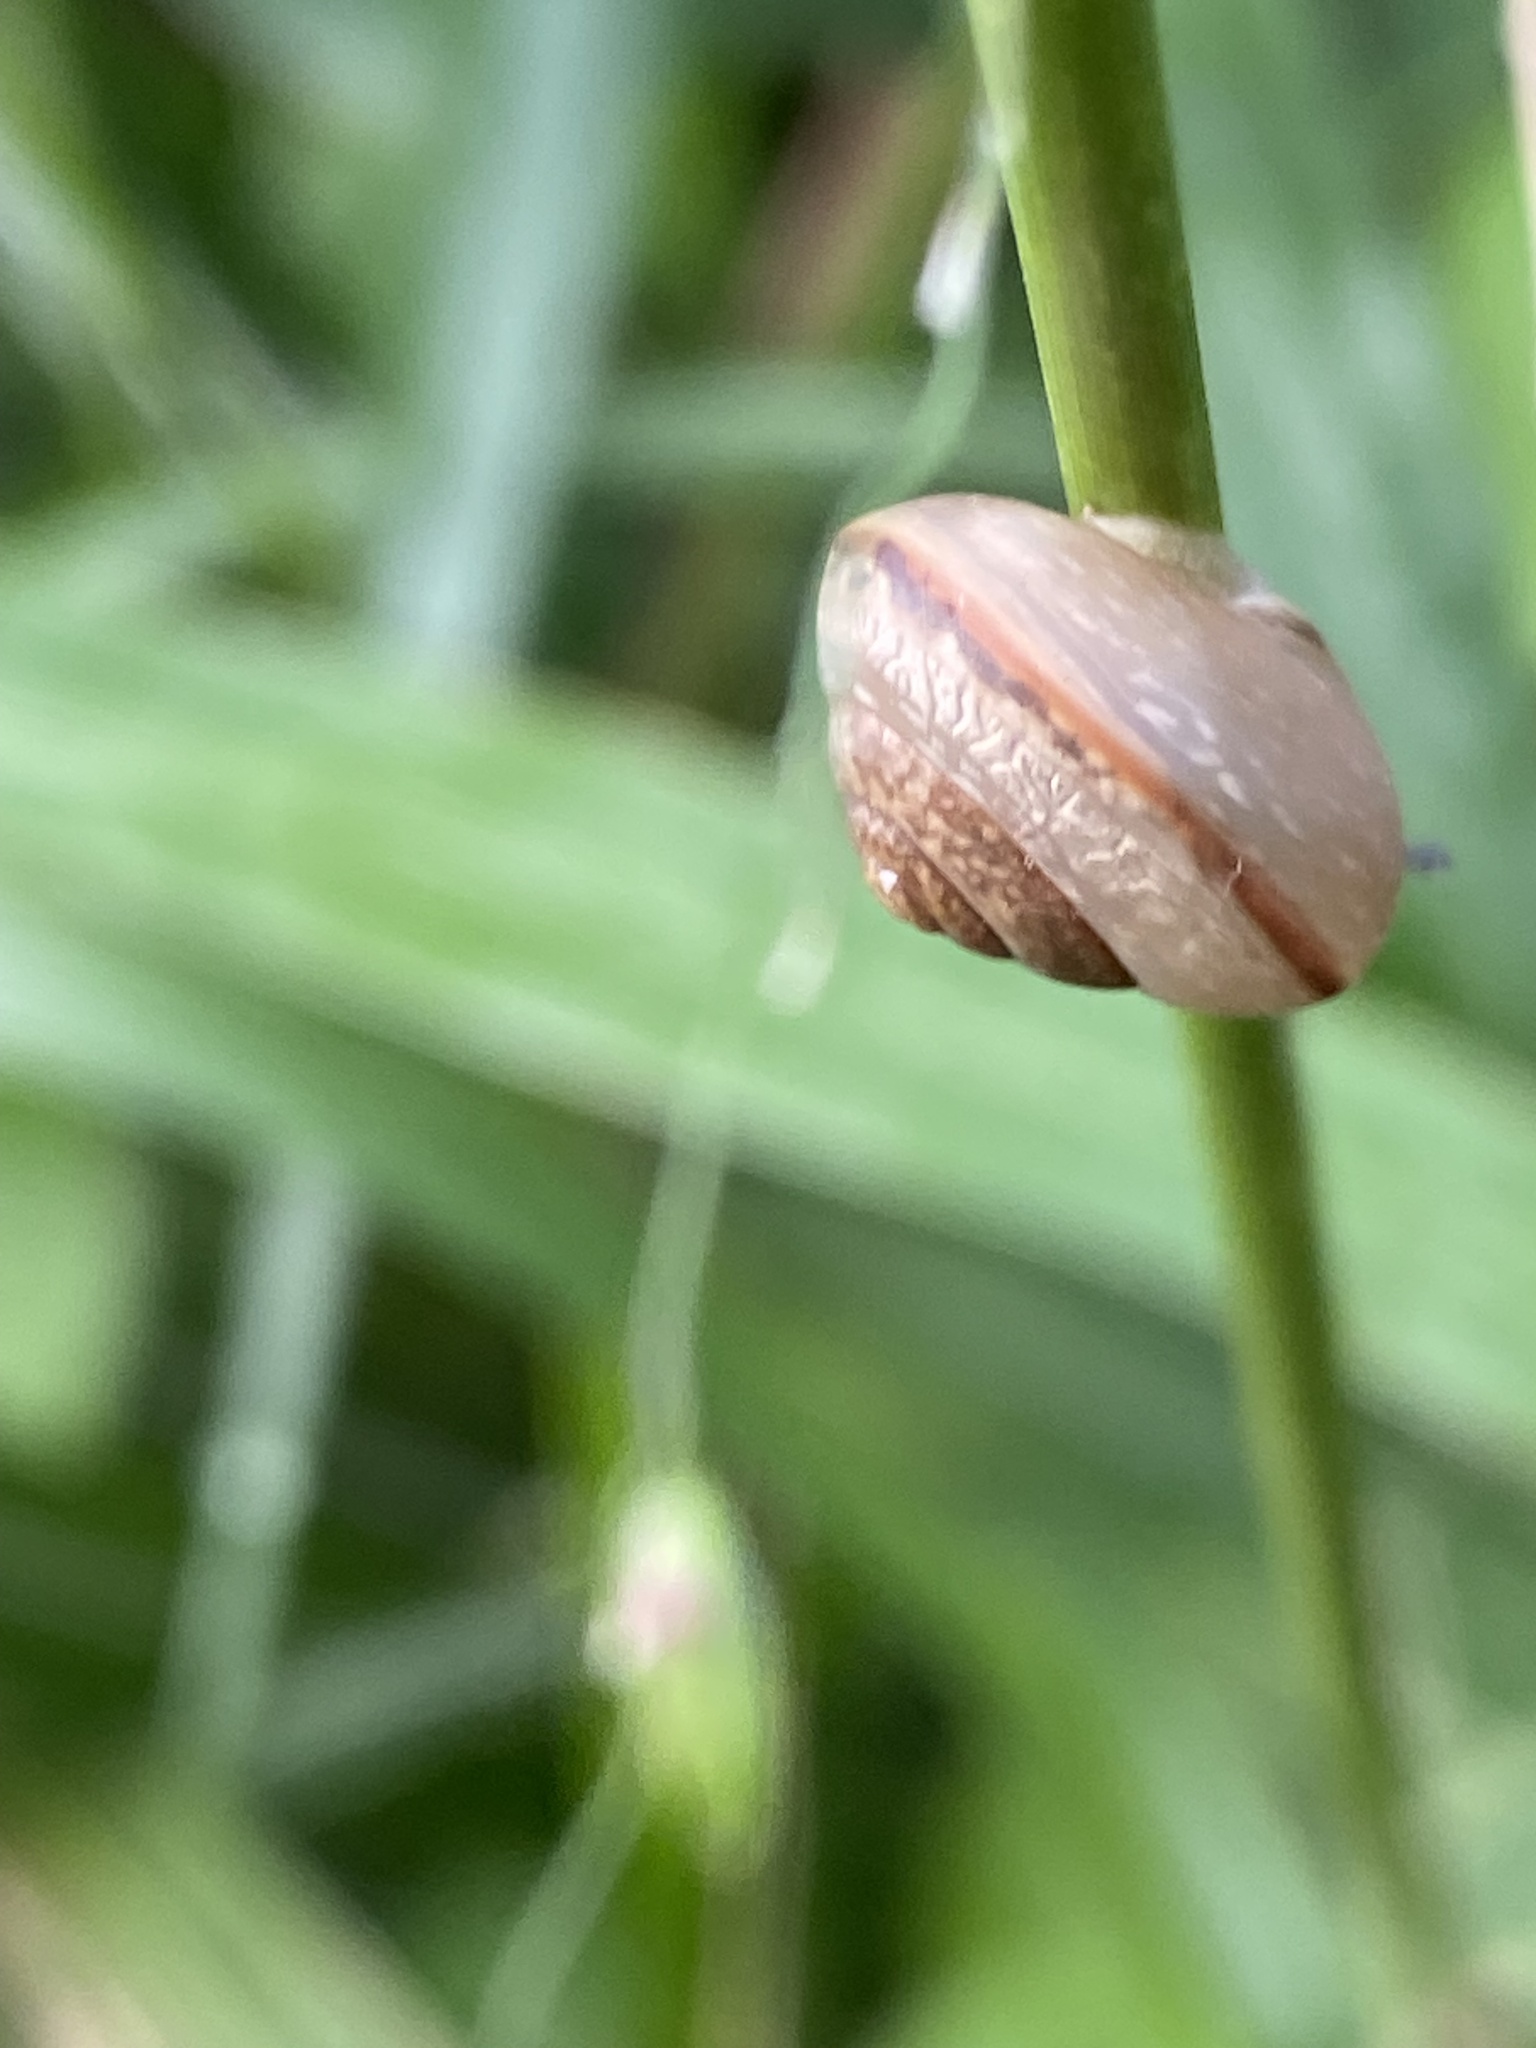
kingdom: Animalia
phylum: Mollusca
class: Gastropoda
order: Stylommatophora
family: Camaenidae
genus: Bradybaena
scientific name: Bradybaena similaris
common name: Asian trampsnail
